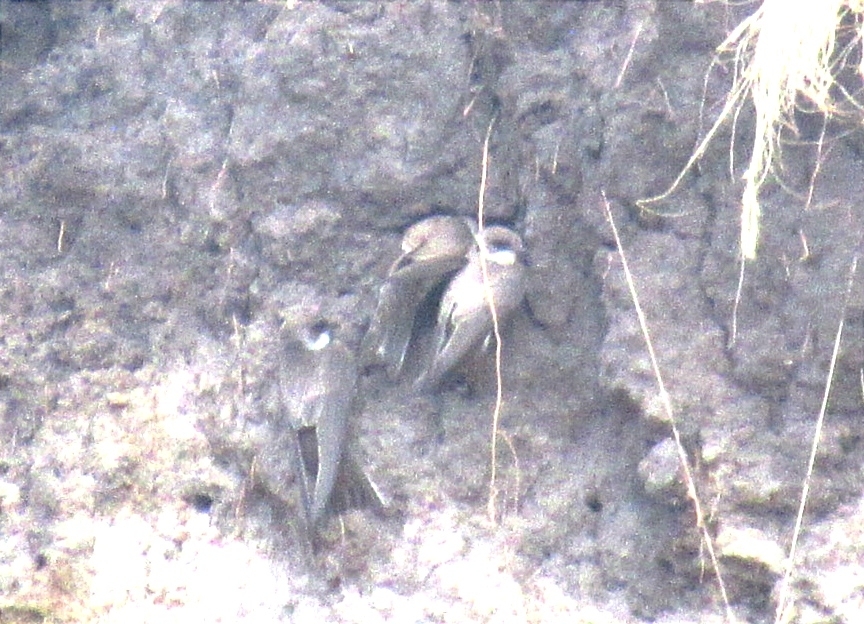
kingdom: Animalia
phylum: Chordata
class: Aves
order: Passeriformes
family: Hirundinidae
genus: Riparia
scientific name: Riparia riparia
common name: Sand martin
